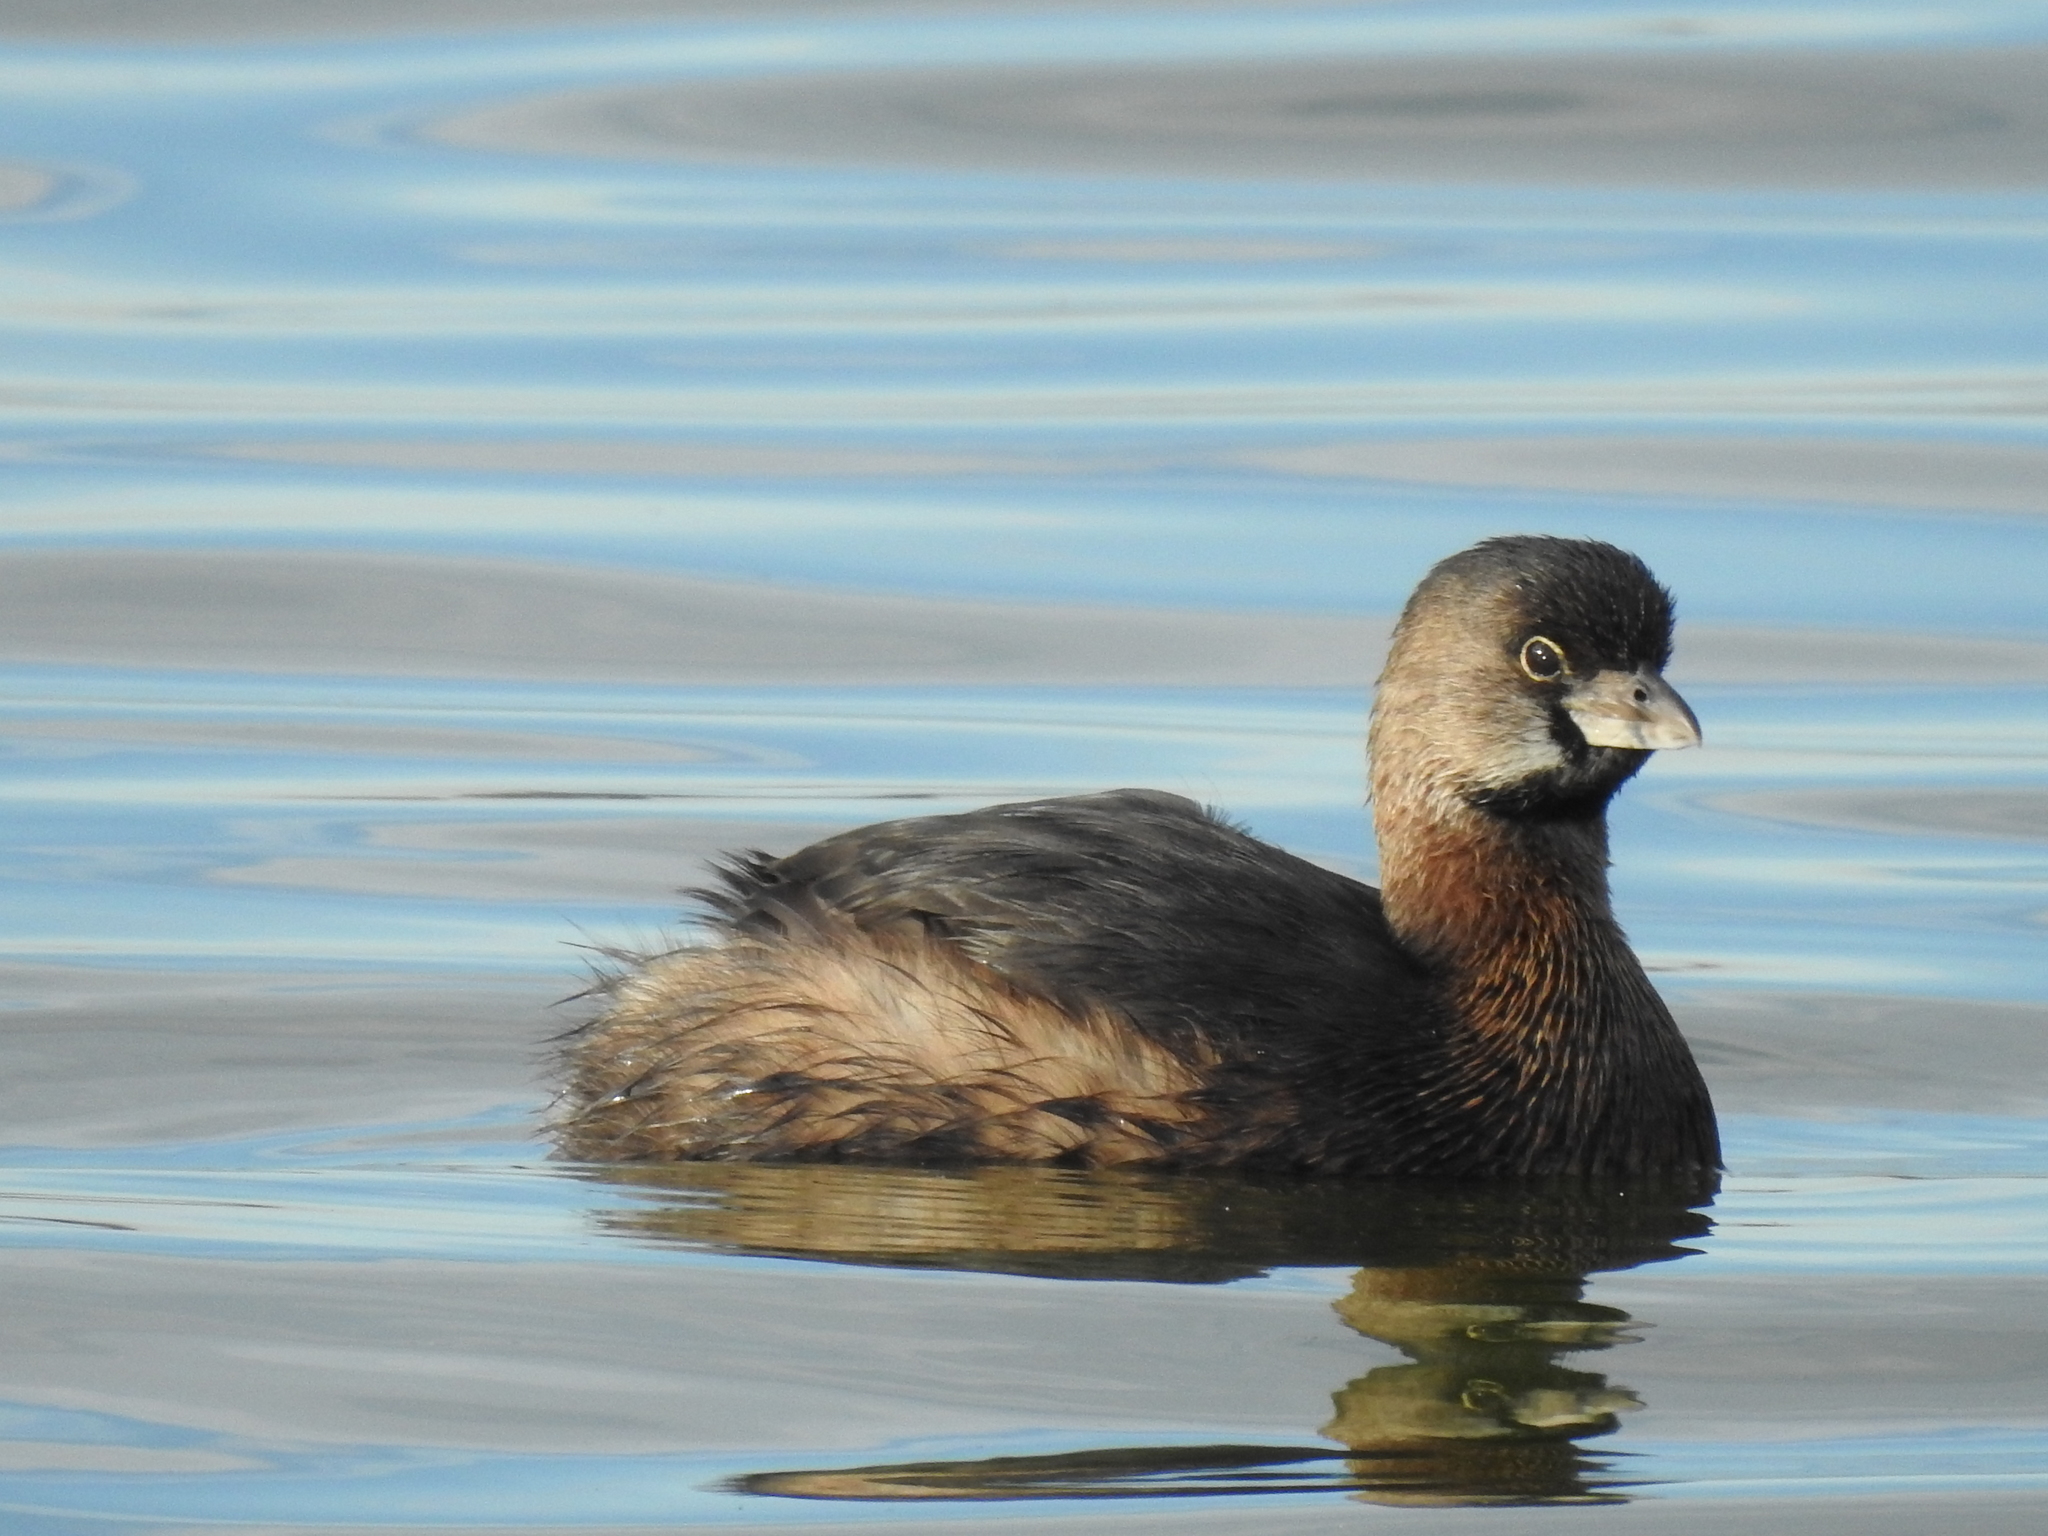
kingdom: Animalia
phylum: Chordata
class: Aves
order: Podicipediformes
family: Podicipedidae
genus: Podilymbus
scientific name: Podilymbus podiceps
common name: Pied-billed grebe
